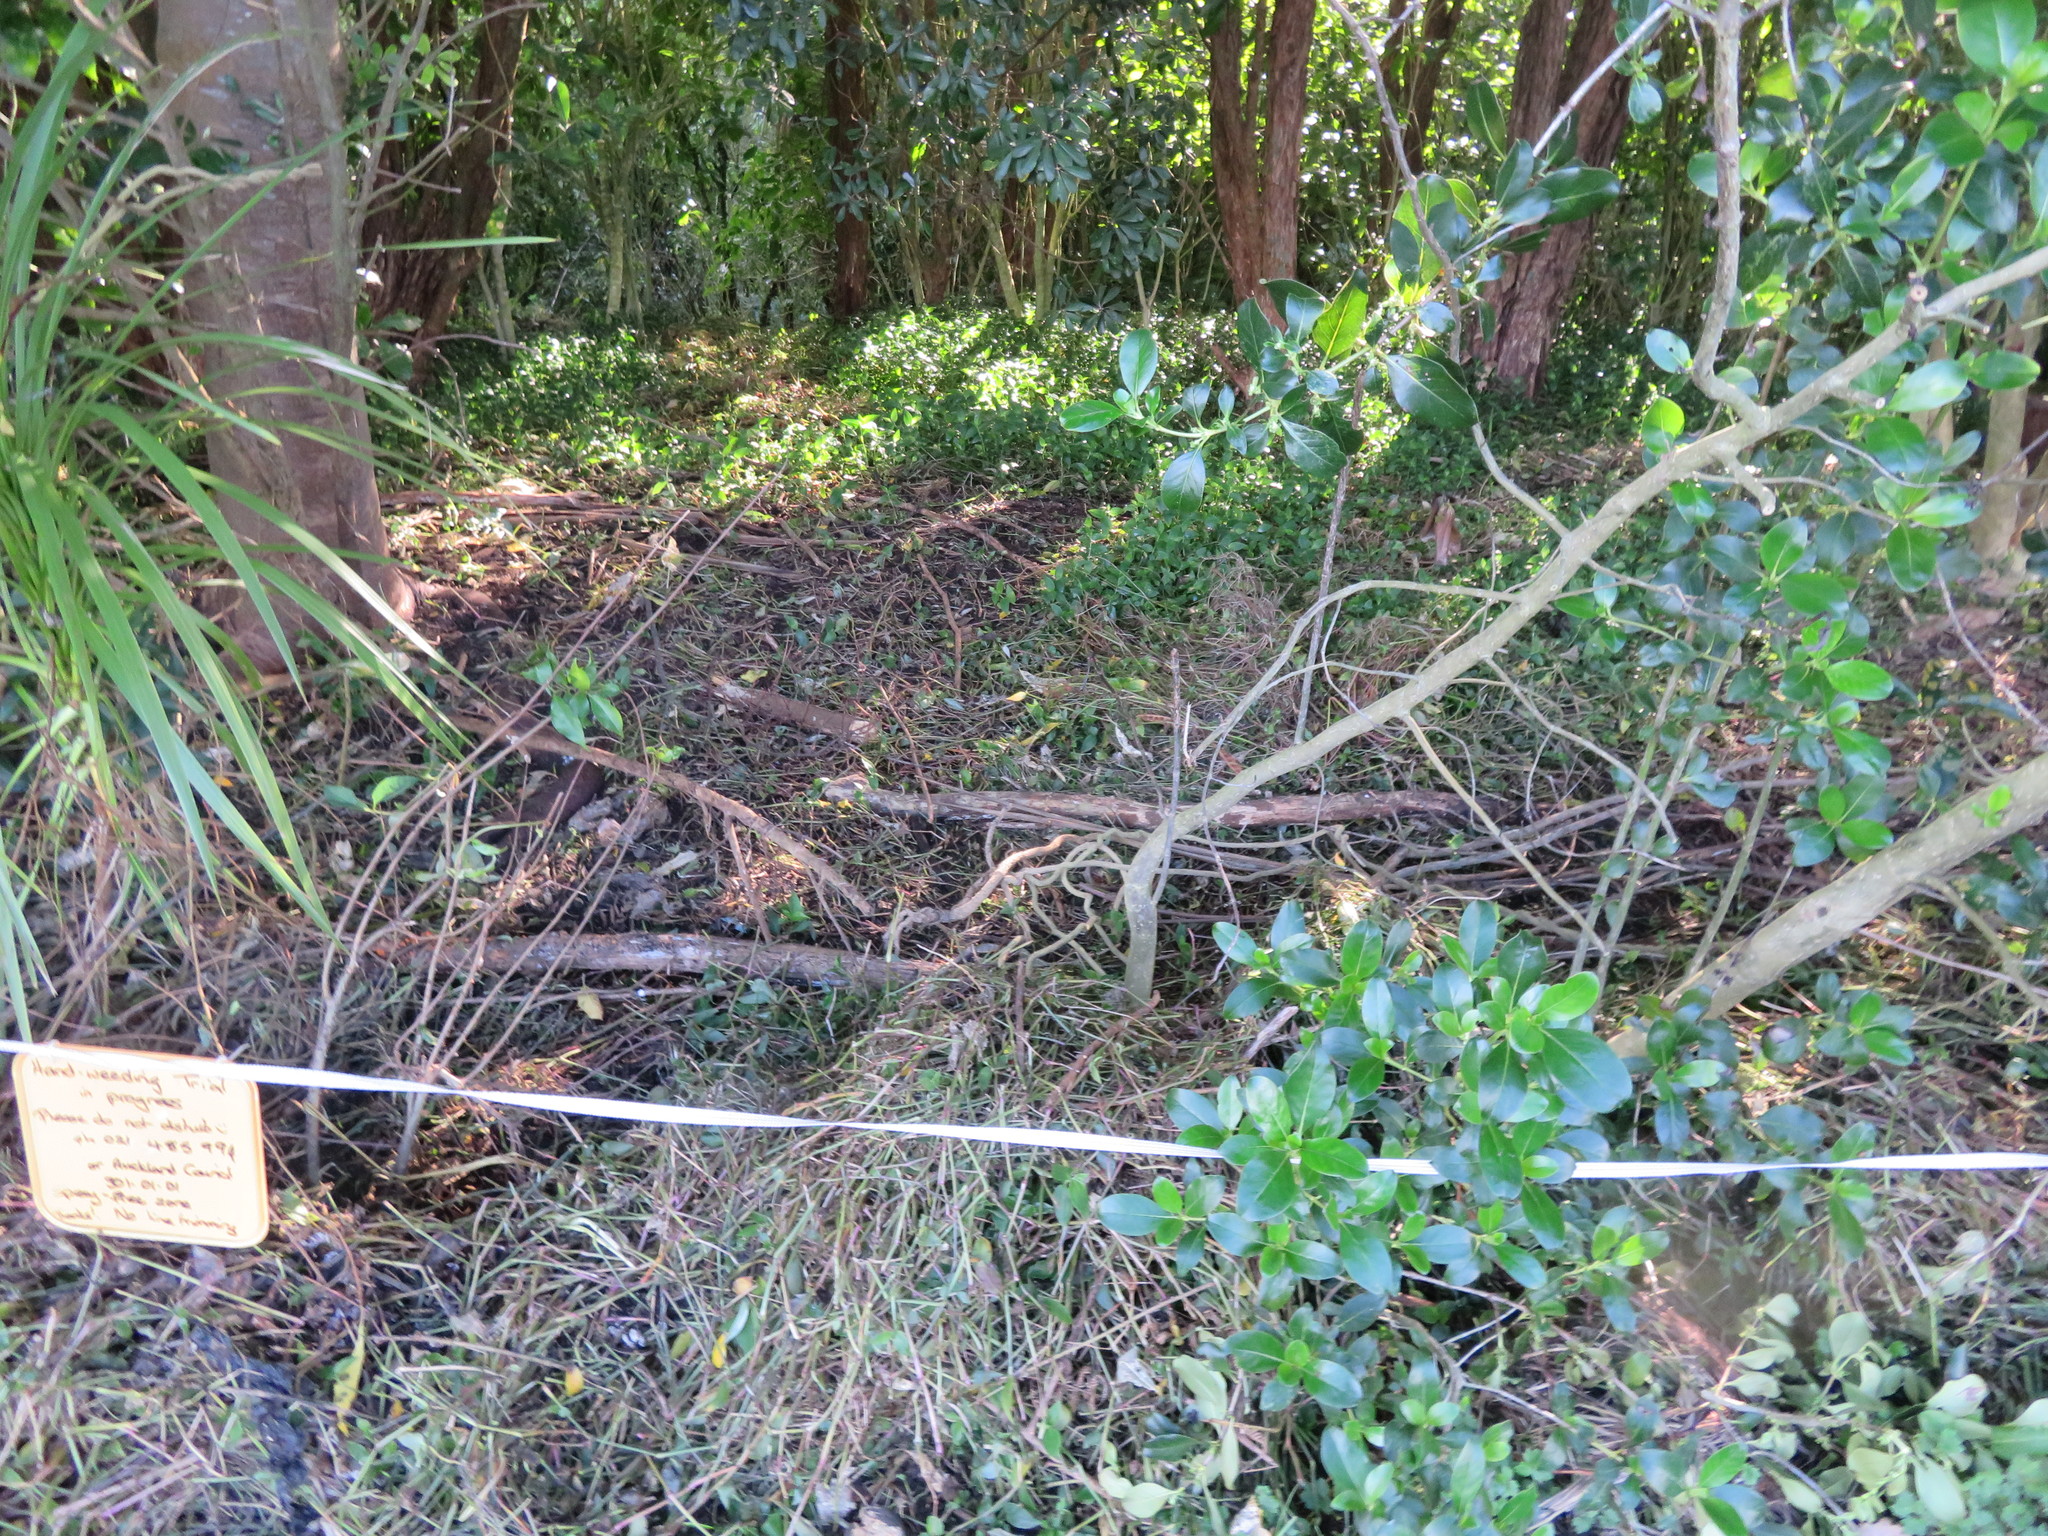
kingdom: Plantae
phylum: Tracheophyta
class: Liliopsida
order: Commelinales
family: Commelinaceae
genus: Tradescantia
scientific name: Tradescantia fluminensis
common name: Wandering-jew
